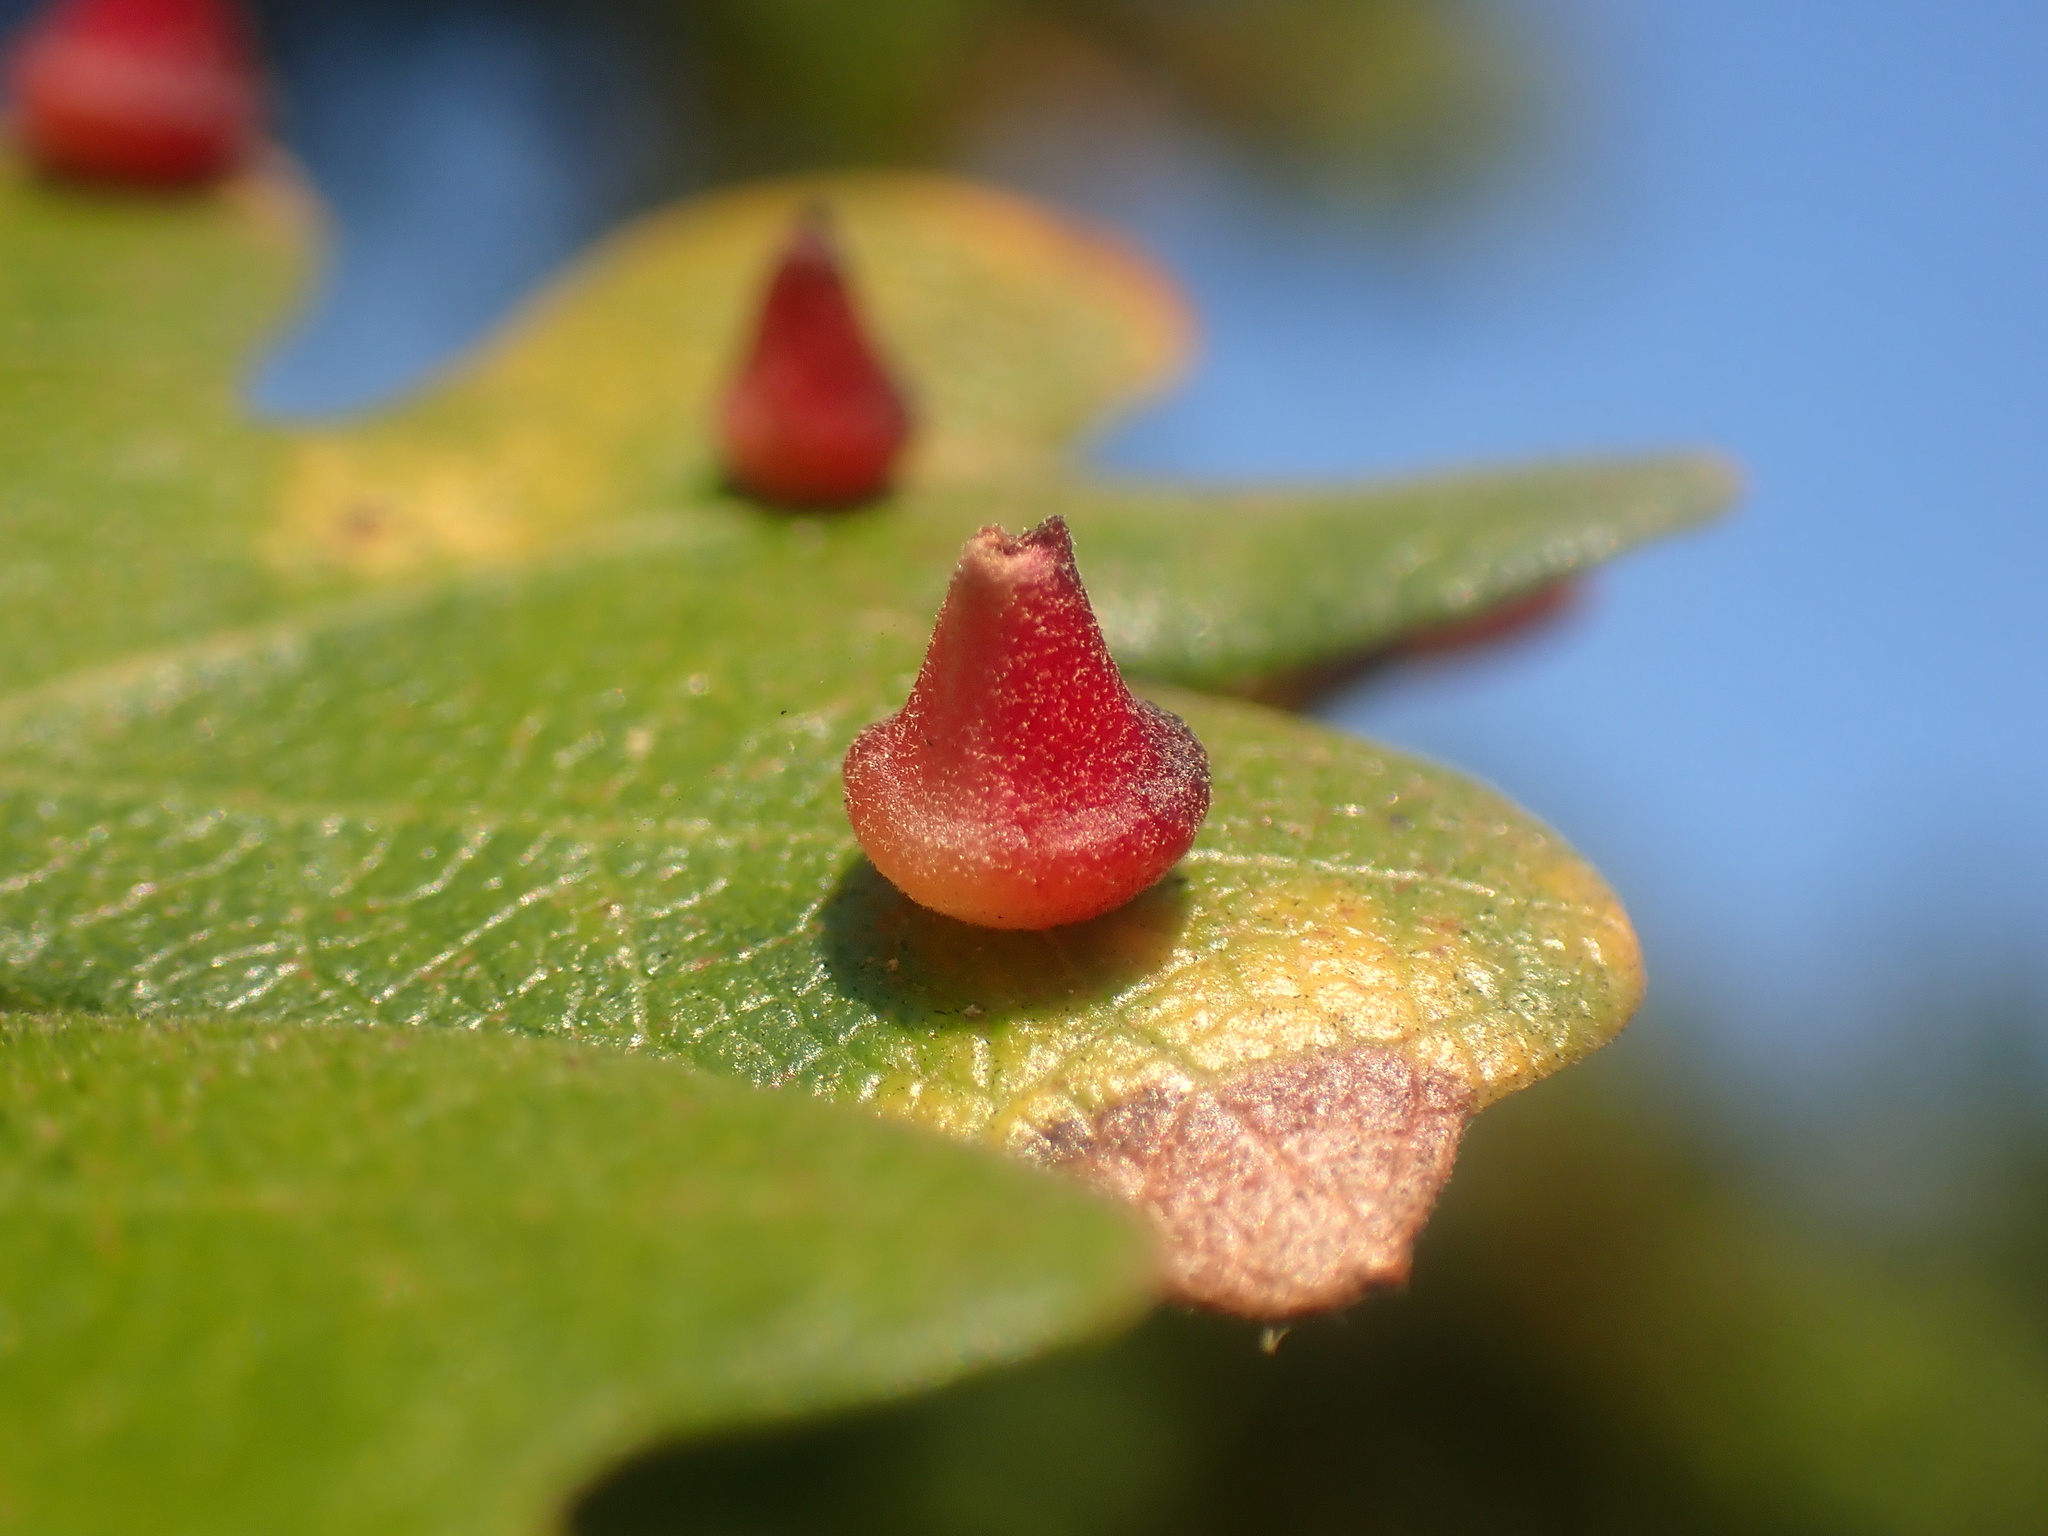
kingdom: Animalia
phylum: Arthropoda
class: Insecta
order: Hymenoptera
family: Cynipidae
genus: Andricus
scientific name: Andricus
